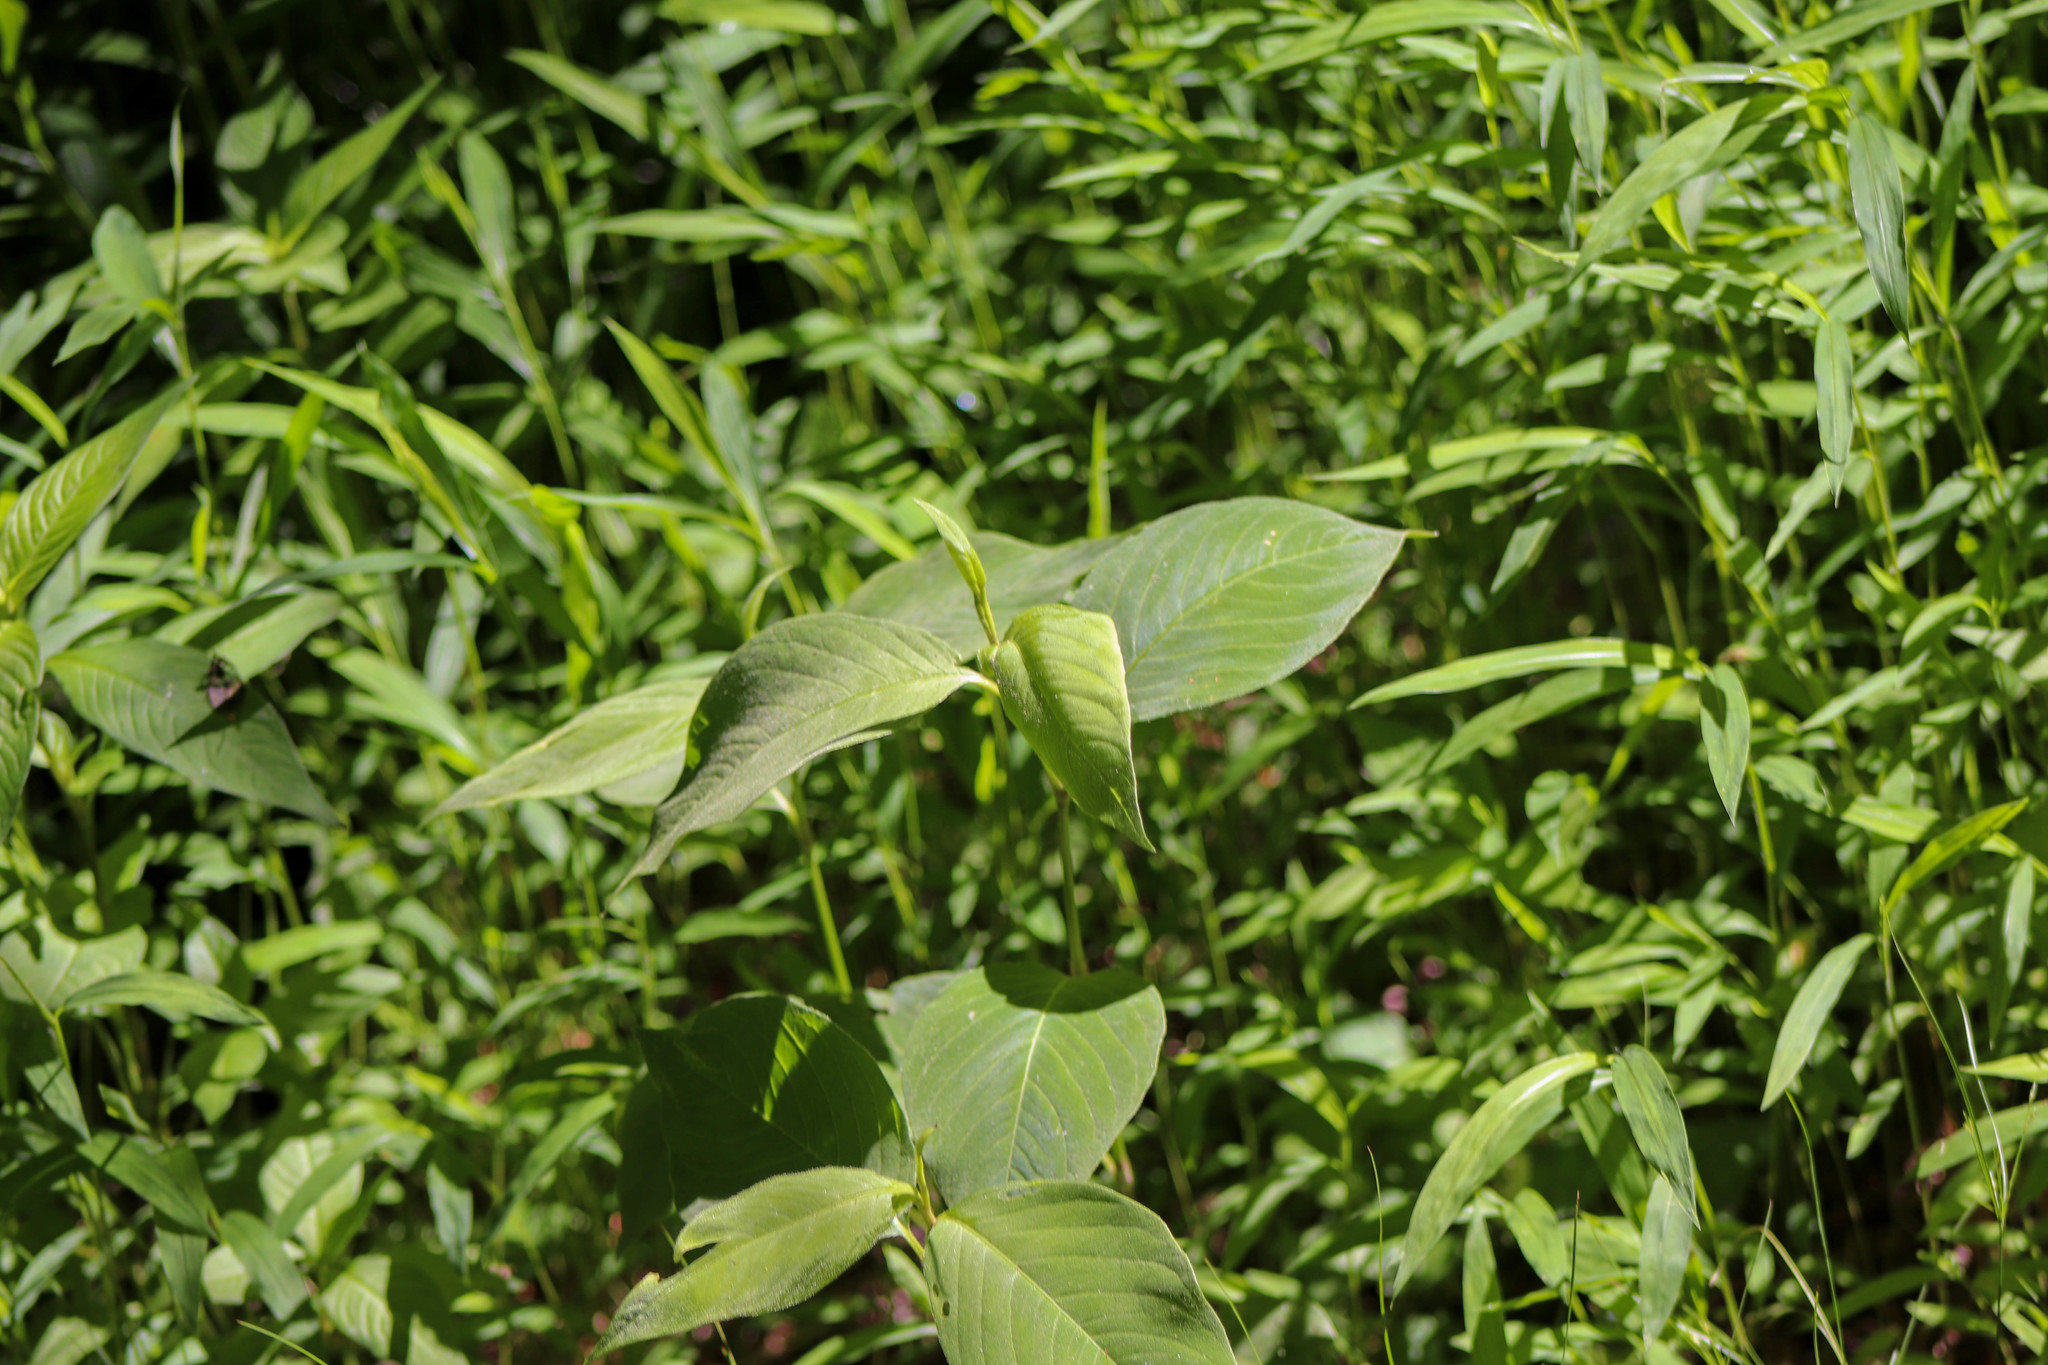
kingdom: Plantae
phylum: Tracheophyta
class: Magnoliopsida
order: Caryophyllales
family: Polygonaceae
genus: Persicaria
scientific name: Persicaria virginiana
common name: Jumpseed
